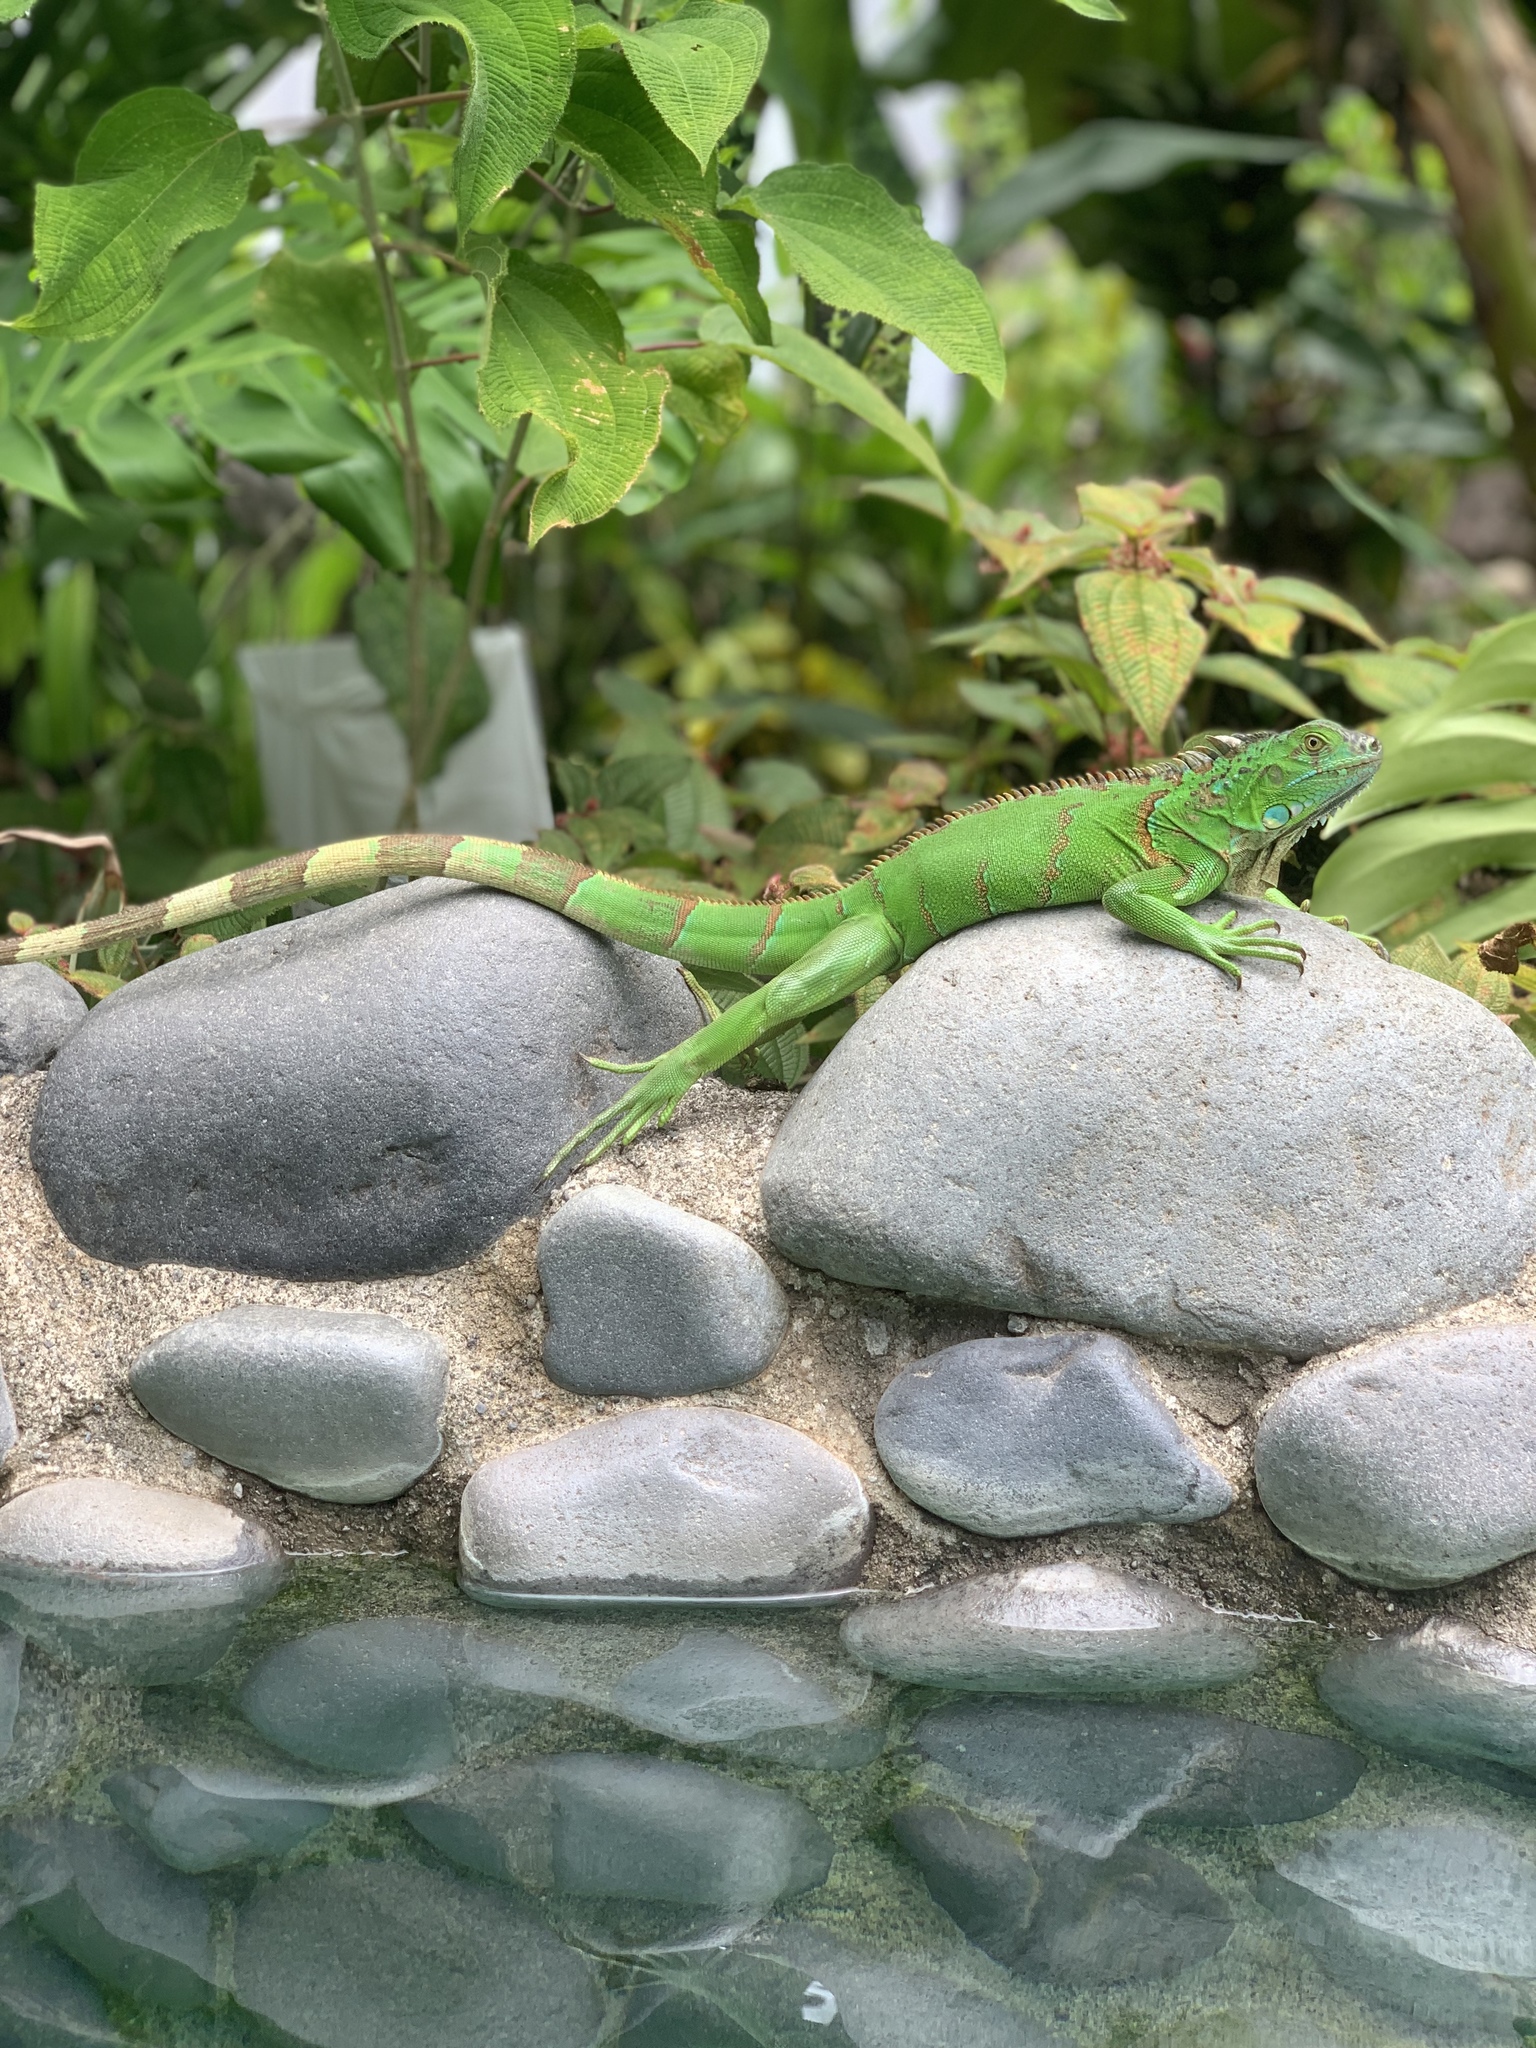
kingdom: Animalia
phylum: Chordata
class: Squamata
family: Iguanidae
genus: Iguana
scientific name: Iguana iguana
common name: Green iguana
